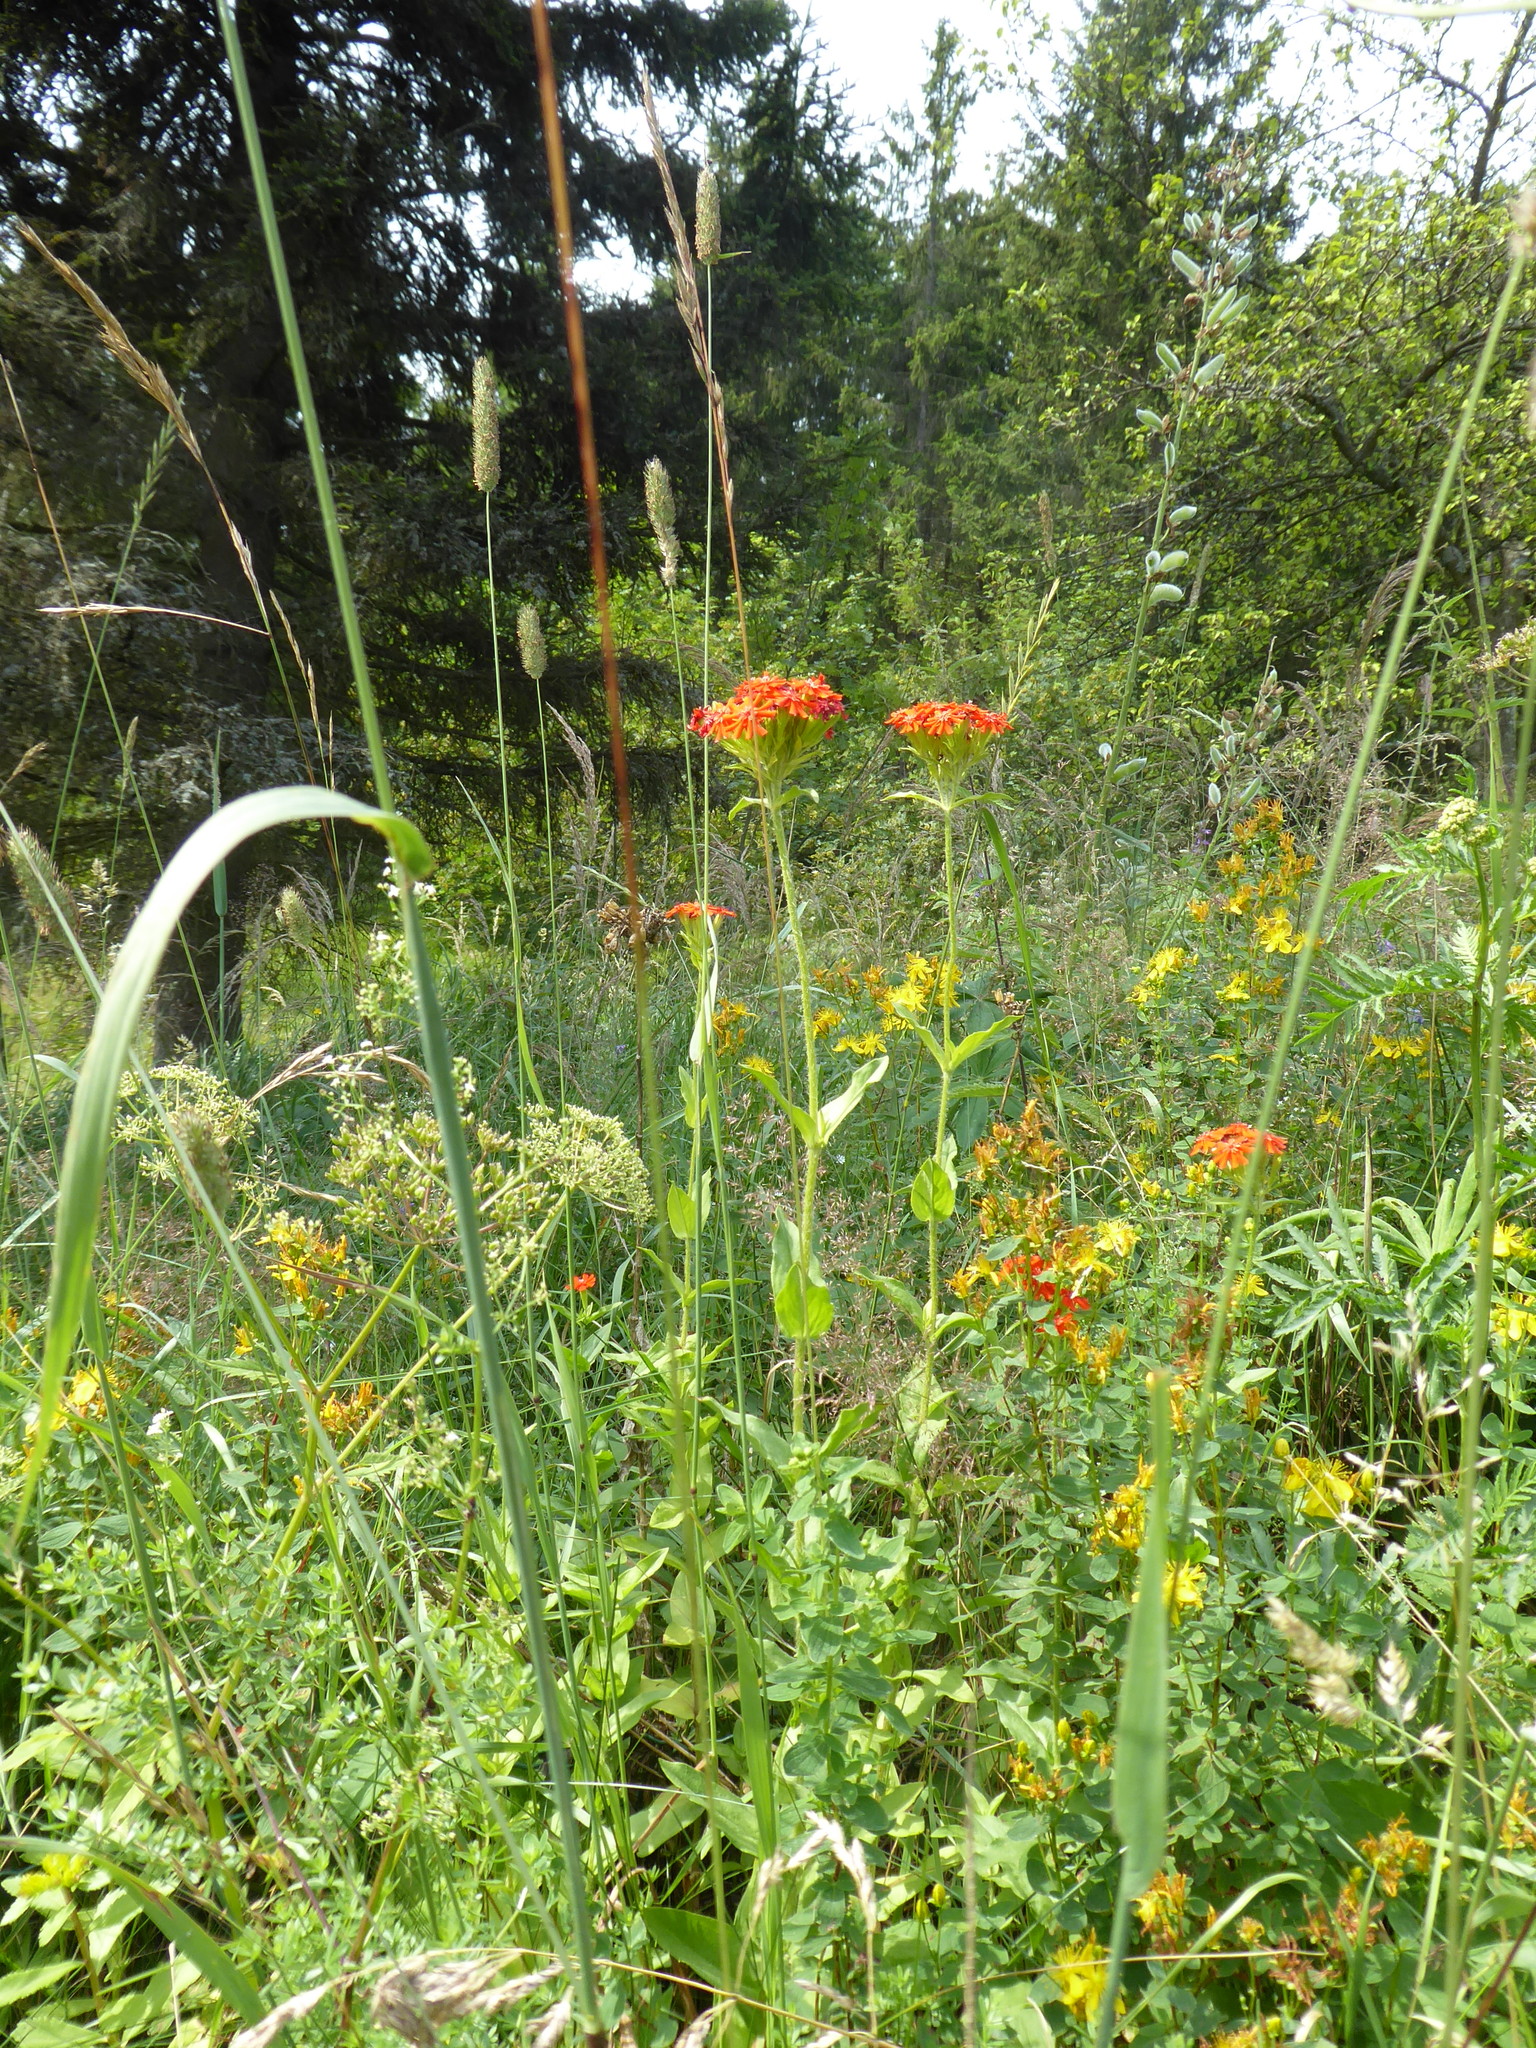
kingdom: Plantae
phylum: Tracheophyta
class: Magnoliopsida
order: Caryophyllales
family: Caryophyllaceae
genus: Silene
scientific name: Silene chalcedonica
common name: Maltese-cross
